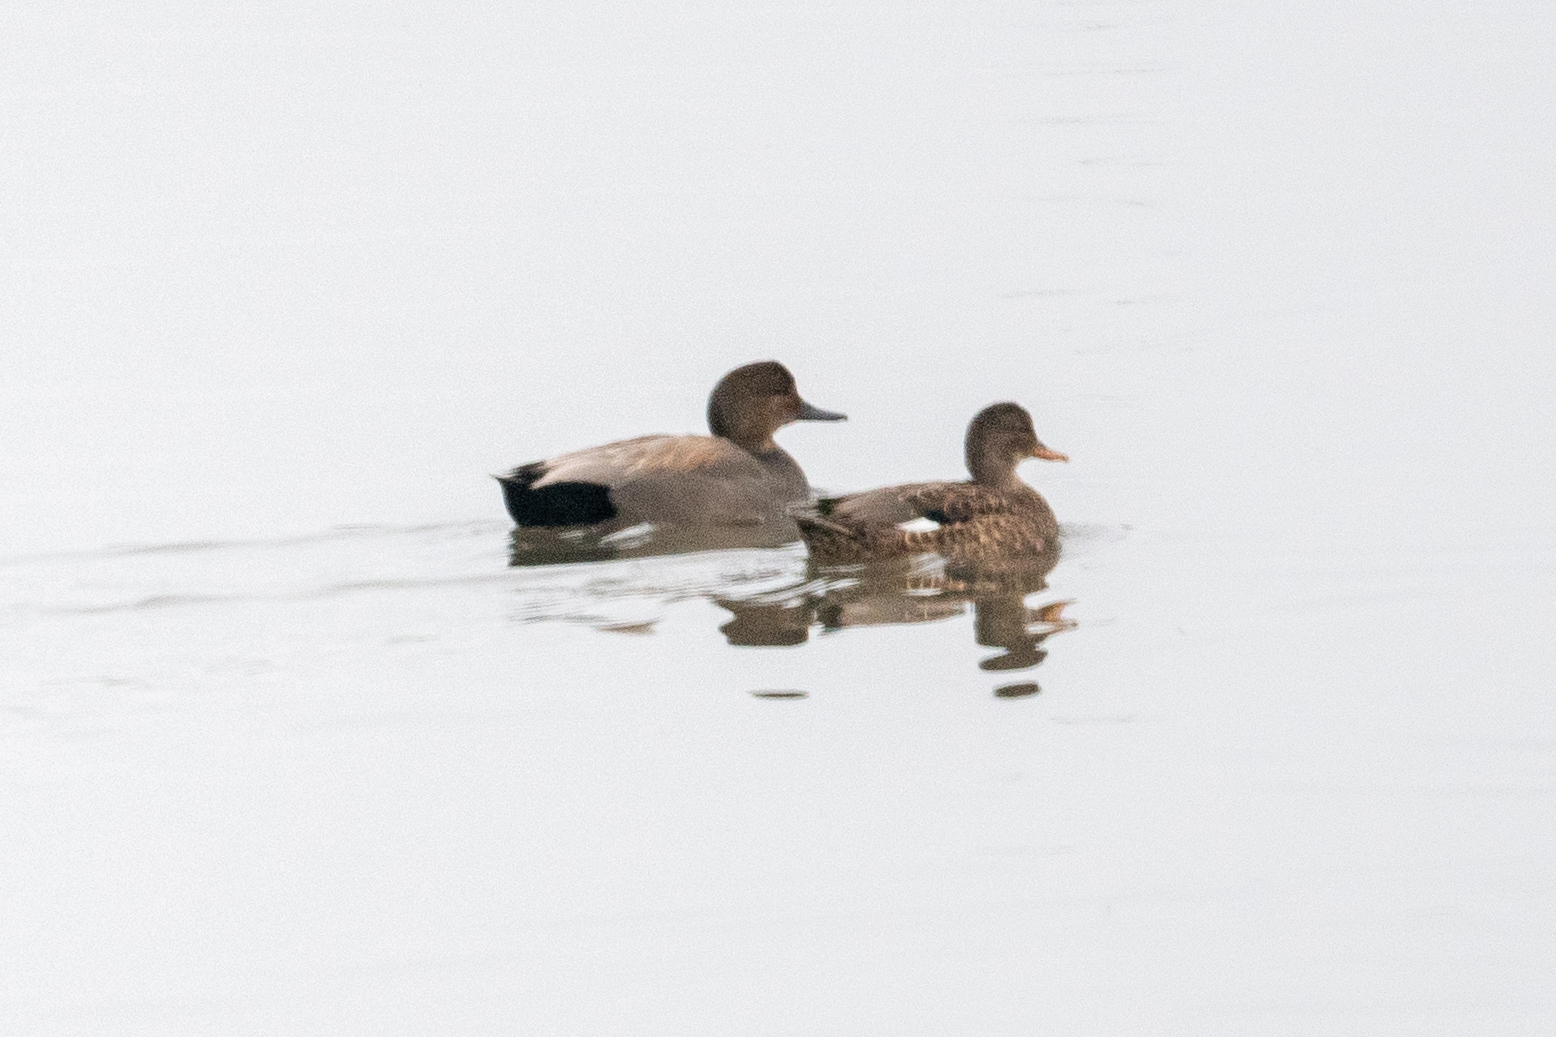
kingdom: Animalia
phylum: Chordata
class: Aves
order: Anseriformes
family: Anatidae
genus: Mareca
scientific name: Mareca strepera
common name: Gadwall
